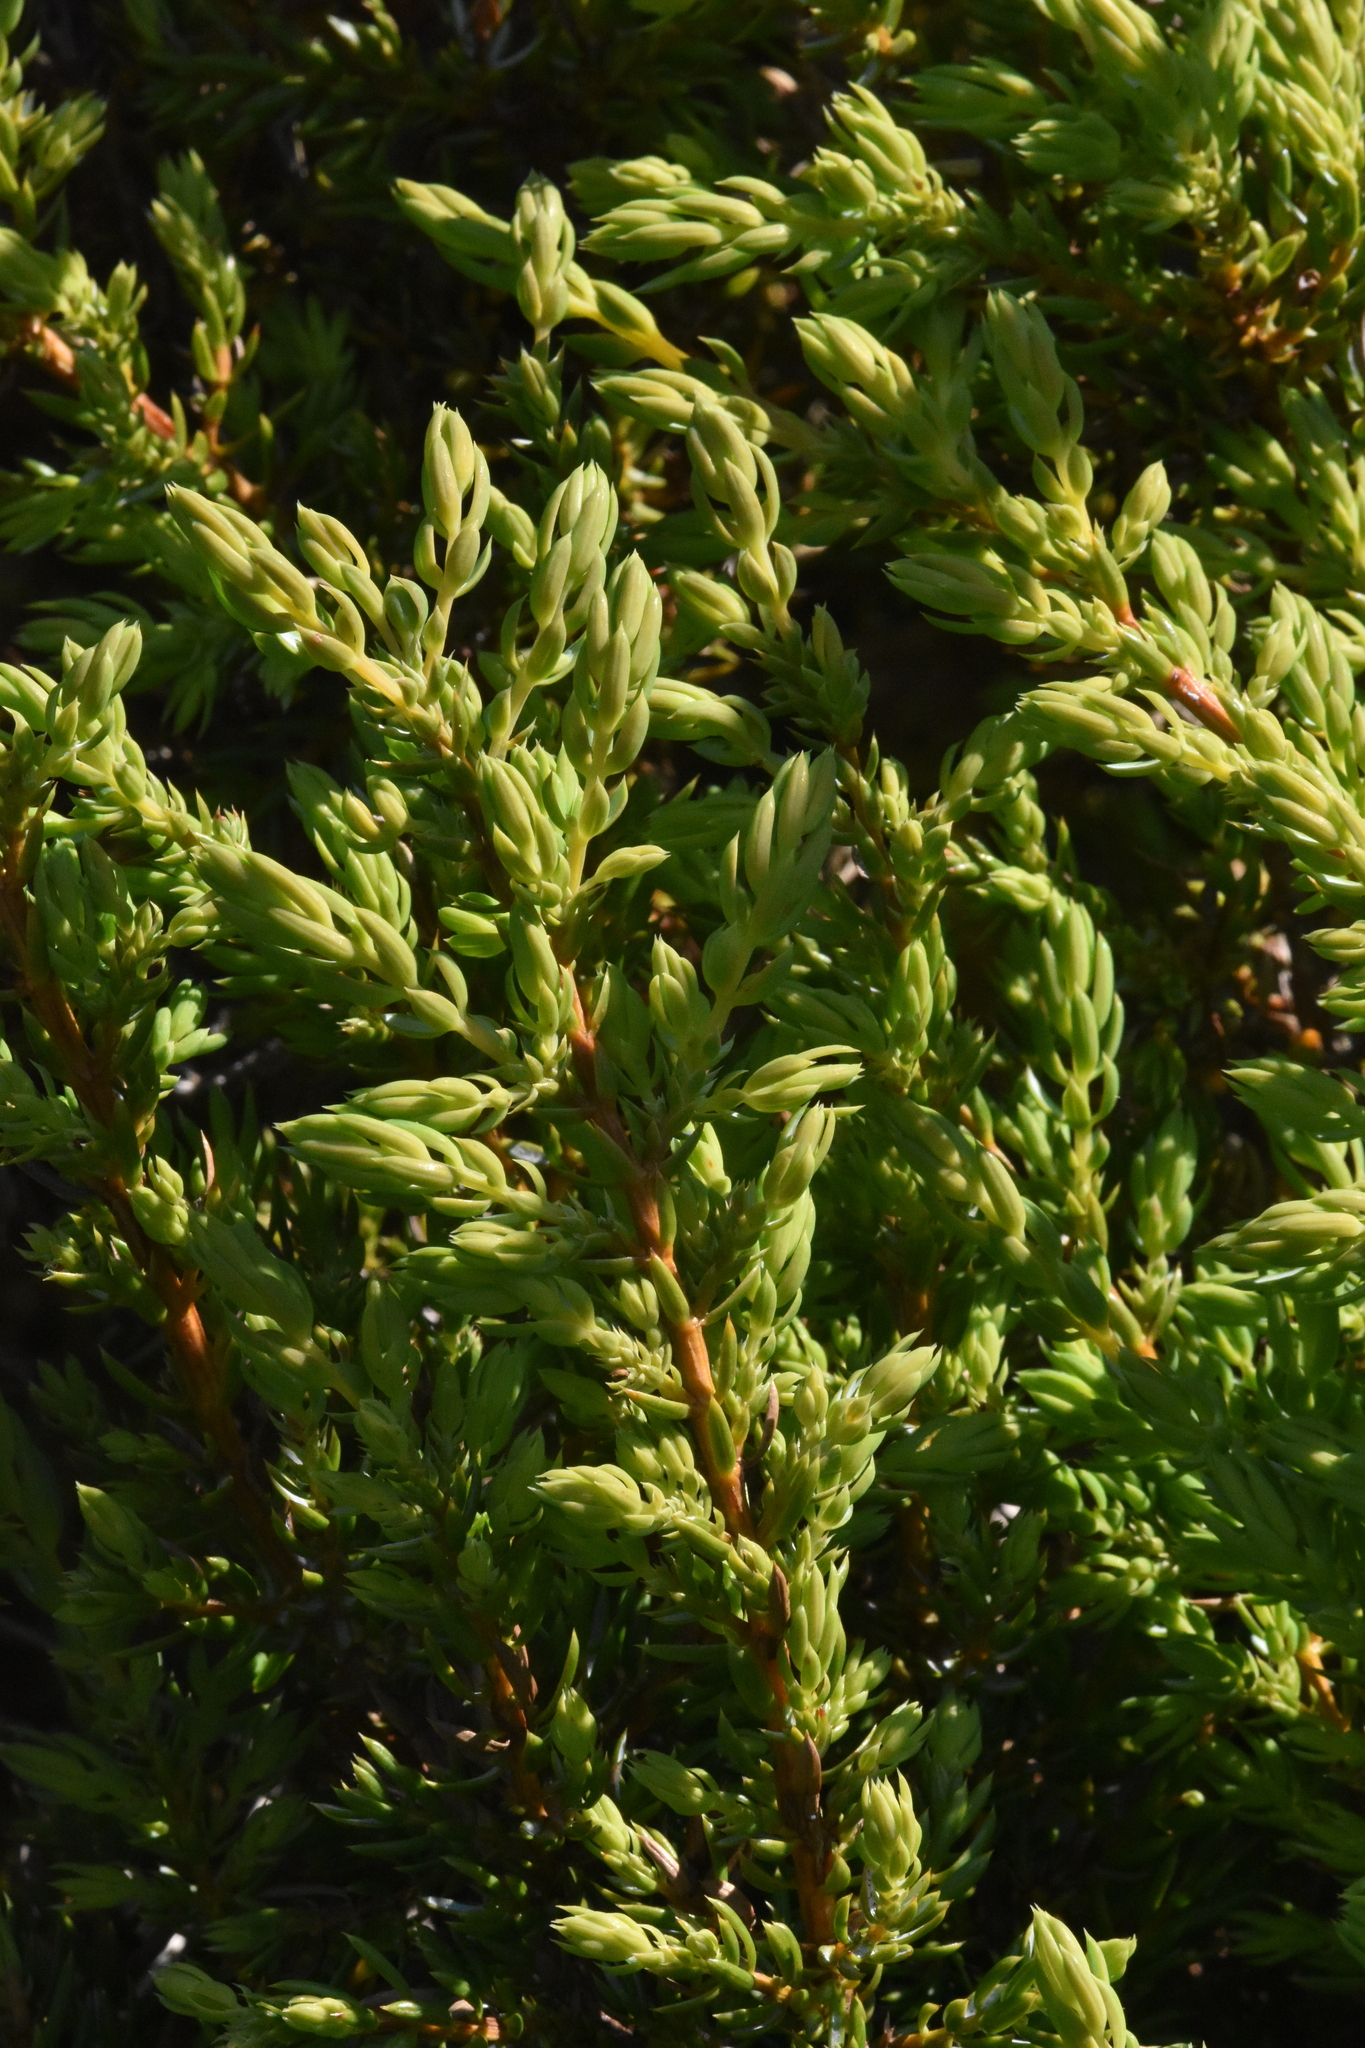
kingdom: Plantae
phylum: Tracheophyta
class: Pinopsida
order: Pinales
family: Cupressaceae
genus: Juniperus
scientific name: Juniperus communis
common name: Common juniper
